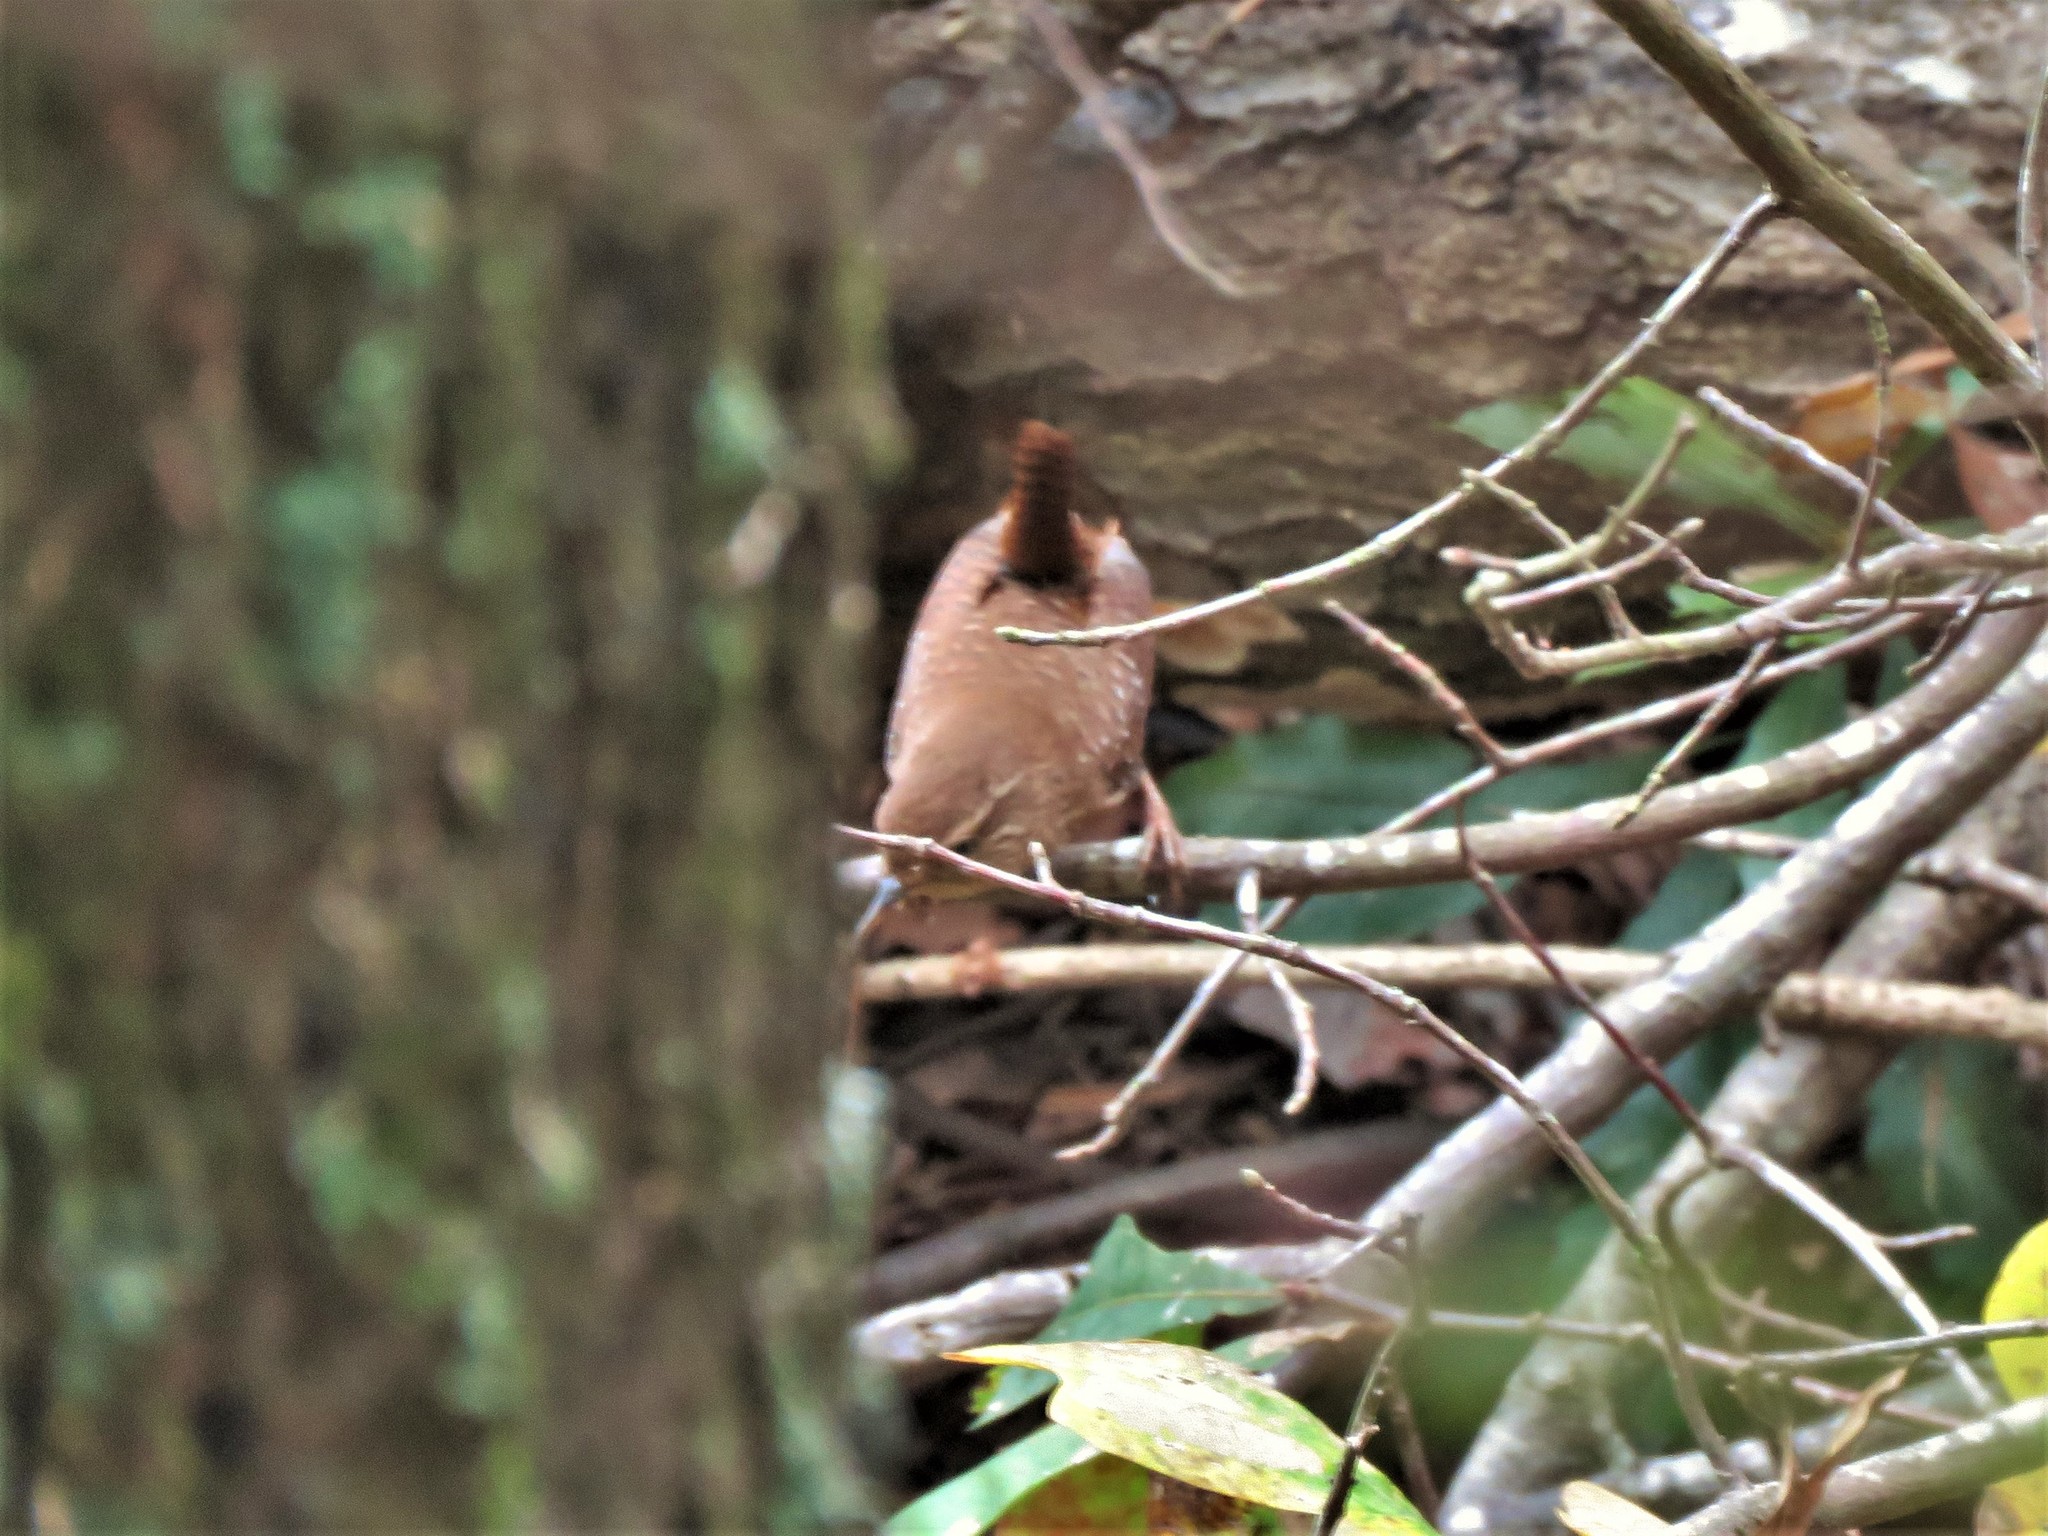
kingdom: Animalia
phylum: Chordata
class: Aves
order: Passeriformes
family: Troglodytidae
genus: Troglodytes
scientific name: Troglodytes hiemalis
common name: Winter wren
